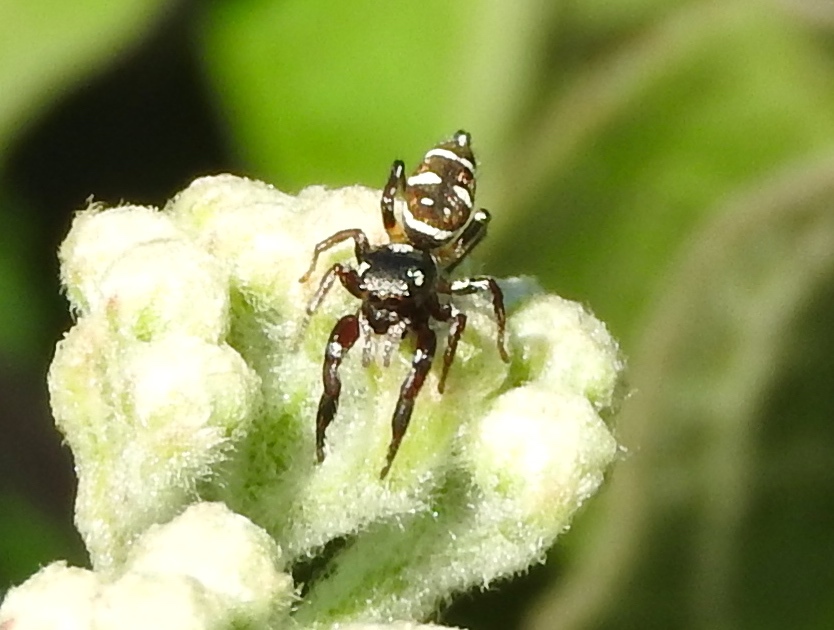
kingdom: Animalia
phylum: Arthropoda
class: Arachnida
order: Araneae
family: Salticidae
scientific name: Salticidae
